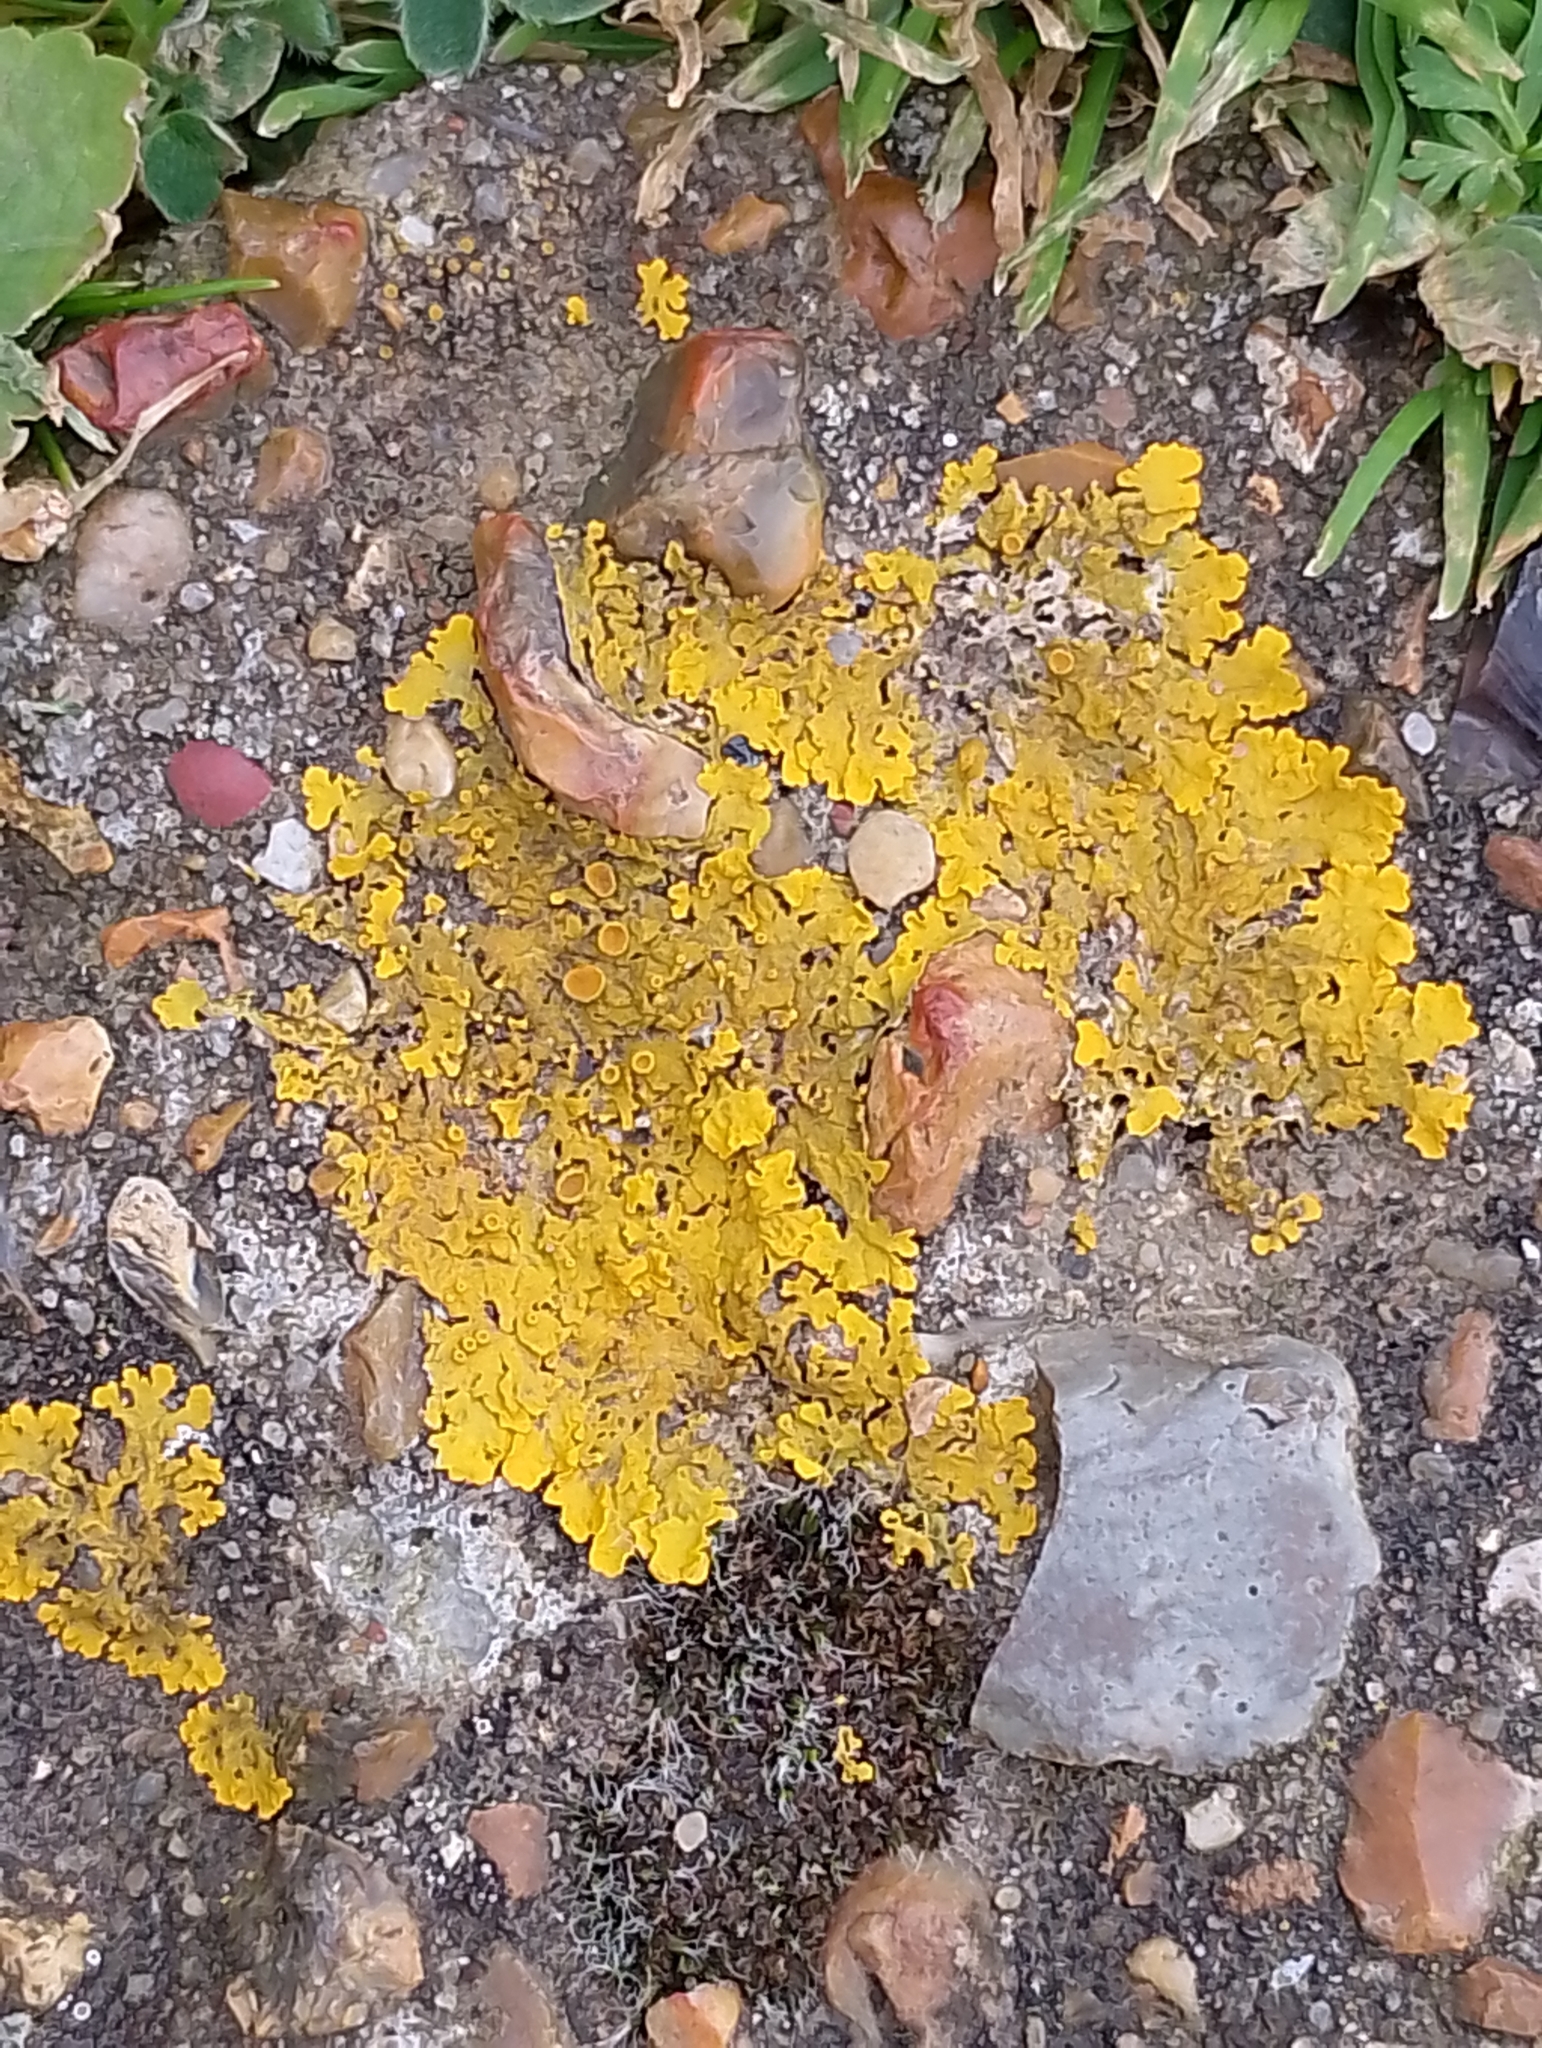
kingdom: Fungi
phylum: Ascomycota
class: Lecanoromycetes
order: Teloschistales
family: Teloschistaceae
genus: Xanthoria
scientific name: Xanthoria parietina
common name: Common orange lichen
